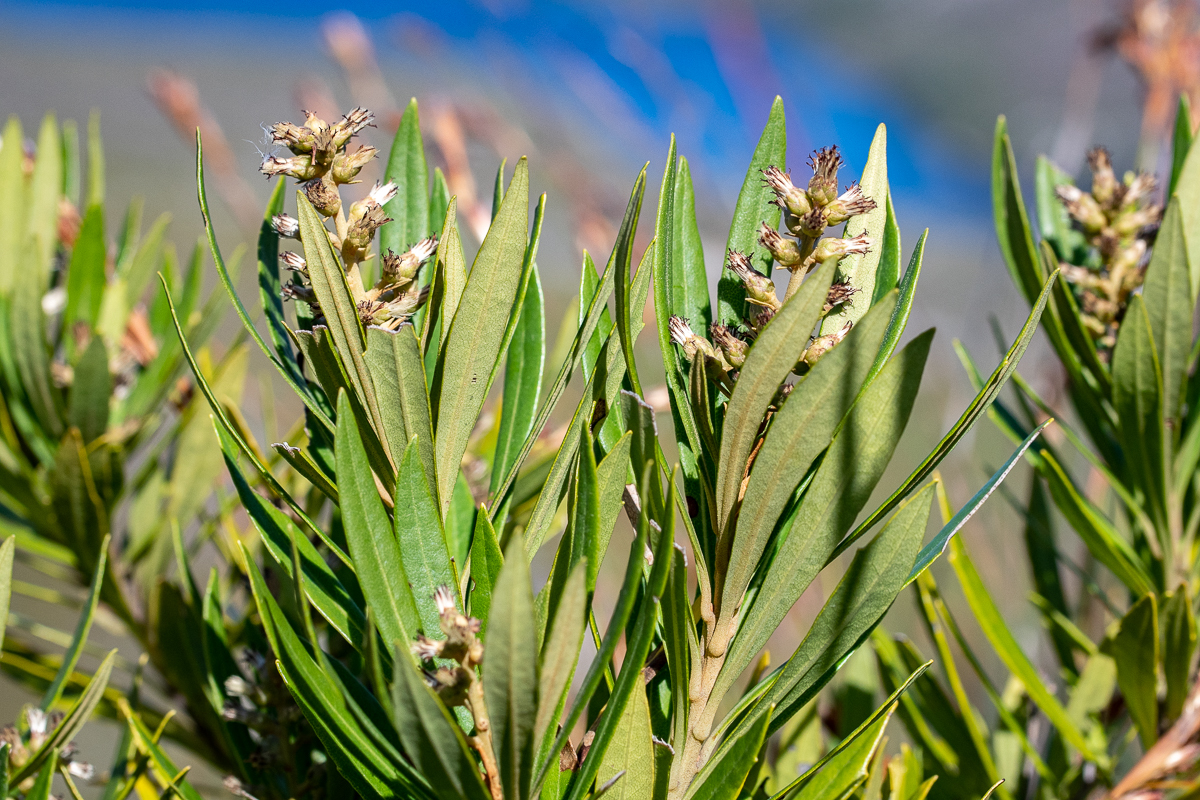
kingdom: Plantae
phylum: Tracheophyta
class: Magnoliopsida
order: Asterales
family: Asteraceae
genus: Brachylaena
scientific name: Brachylaena neriifolia
